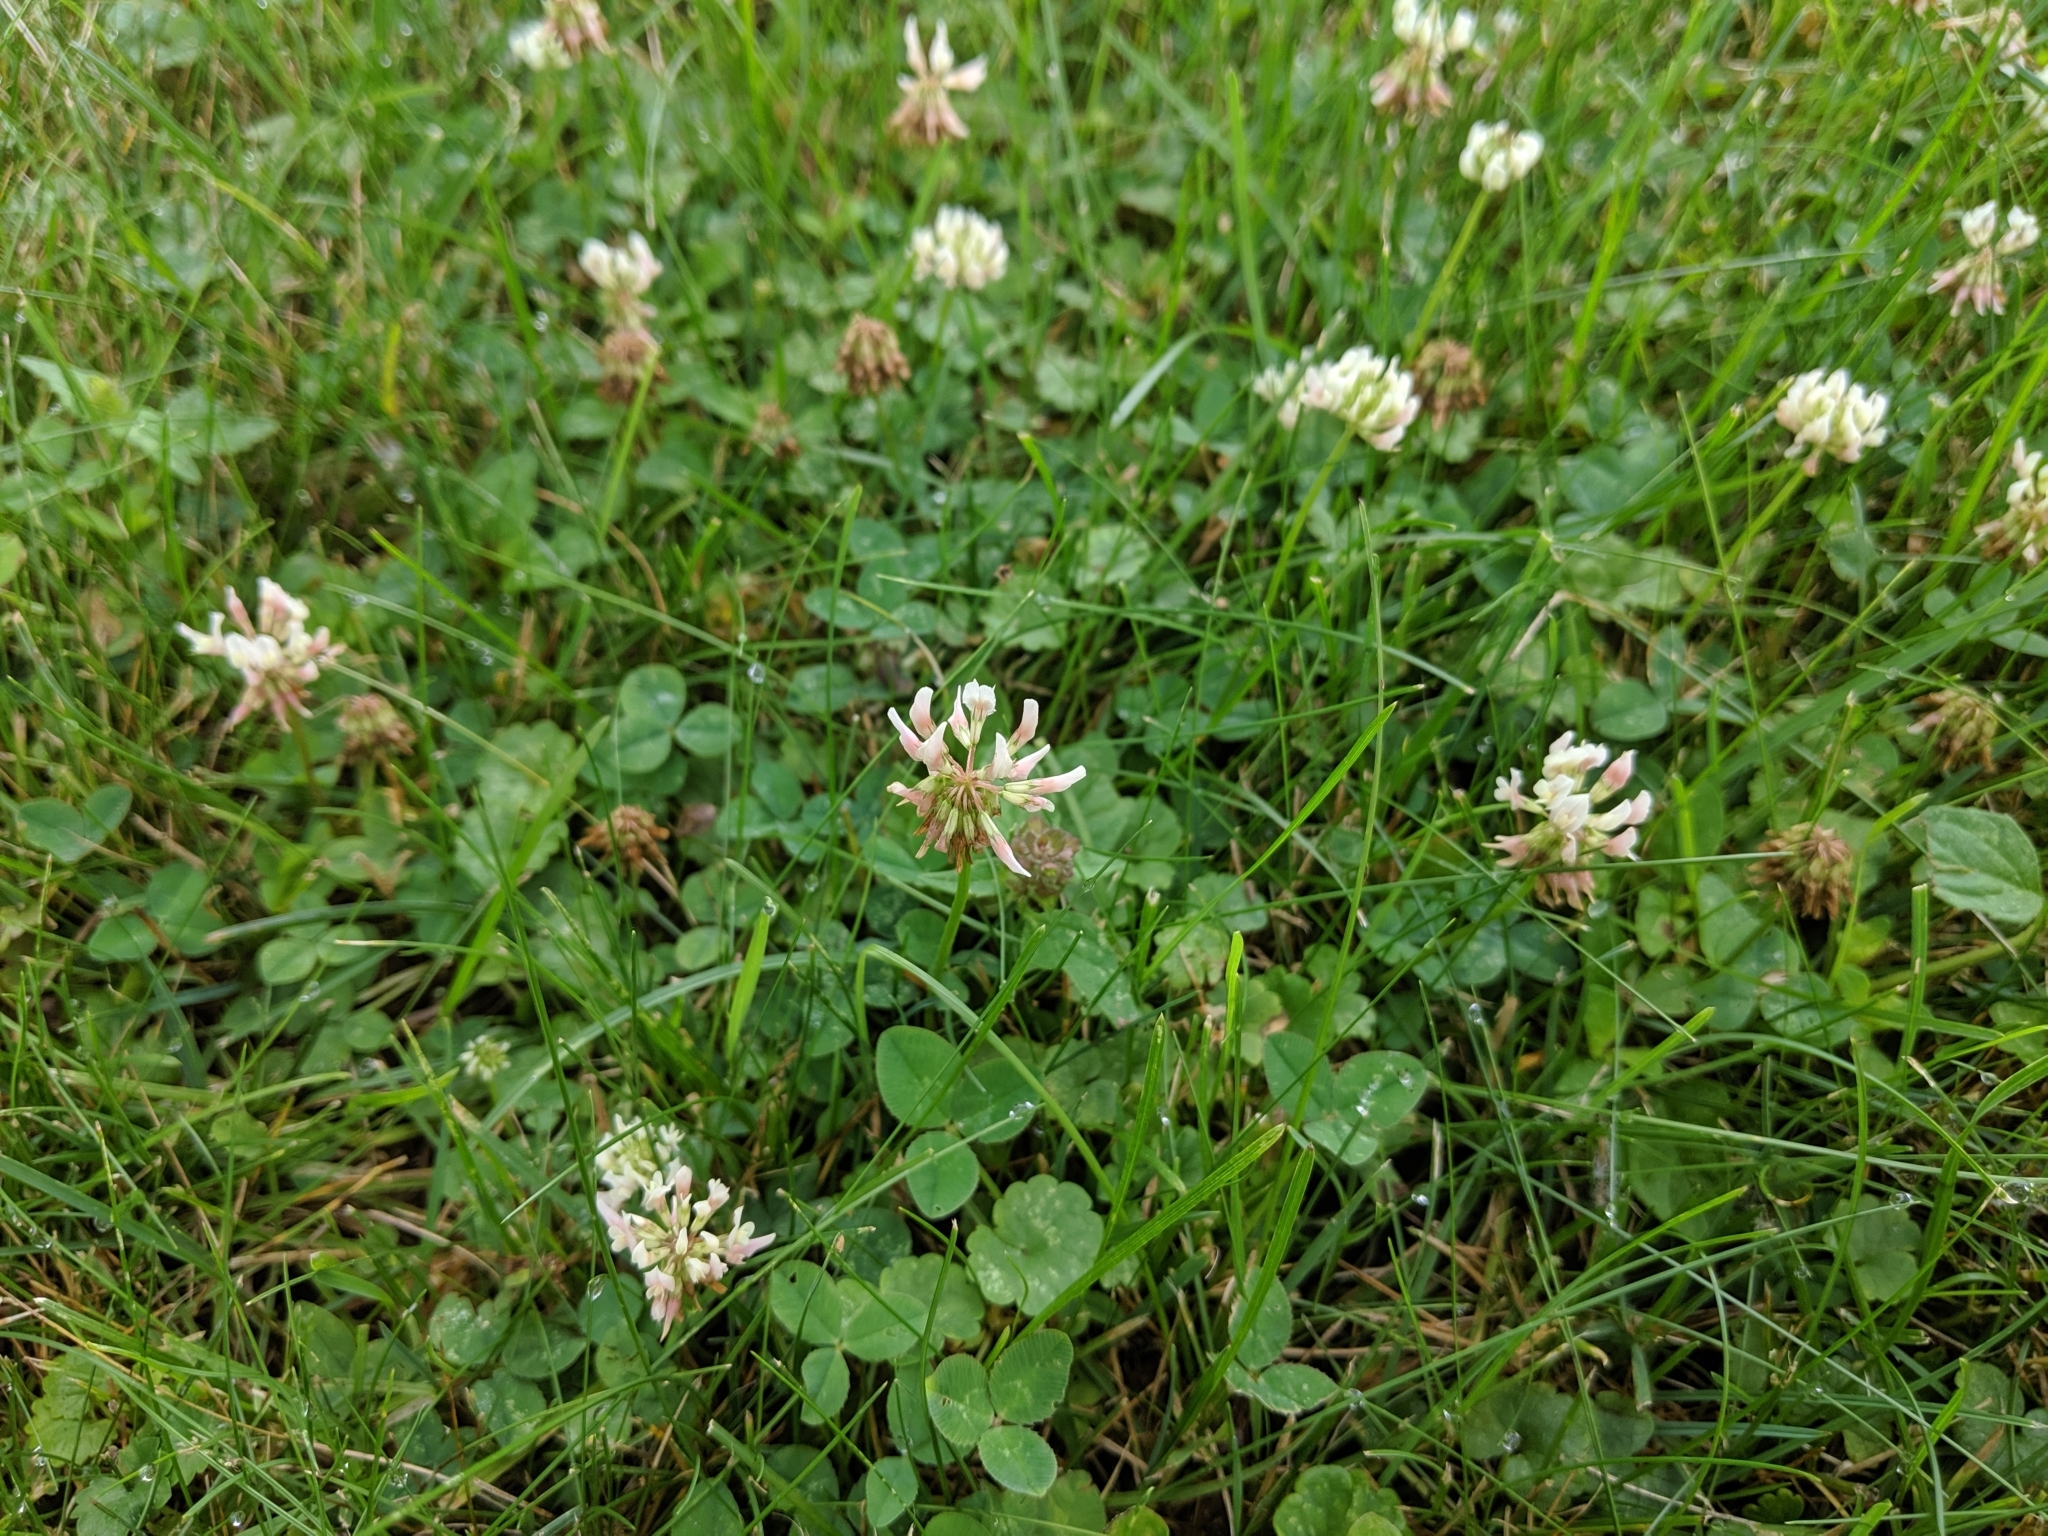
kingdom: Plantae
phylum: Tracheophyta
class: Magnoliopsida
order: Fabales
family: Fabaceae
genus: Trifolium
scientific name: Trifolium repens
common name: White clover
